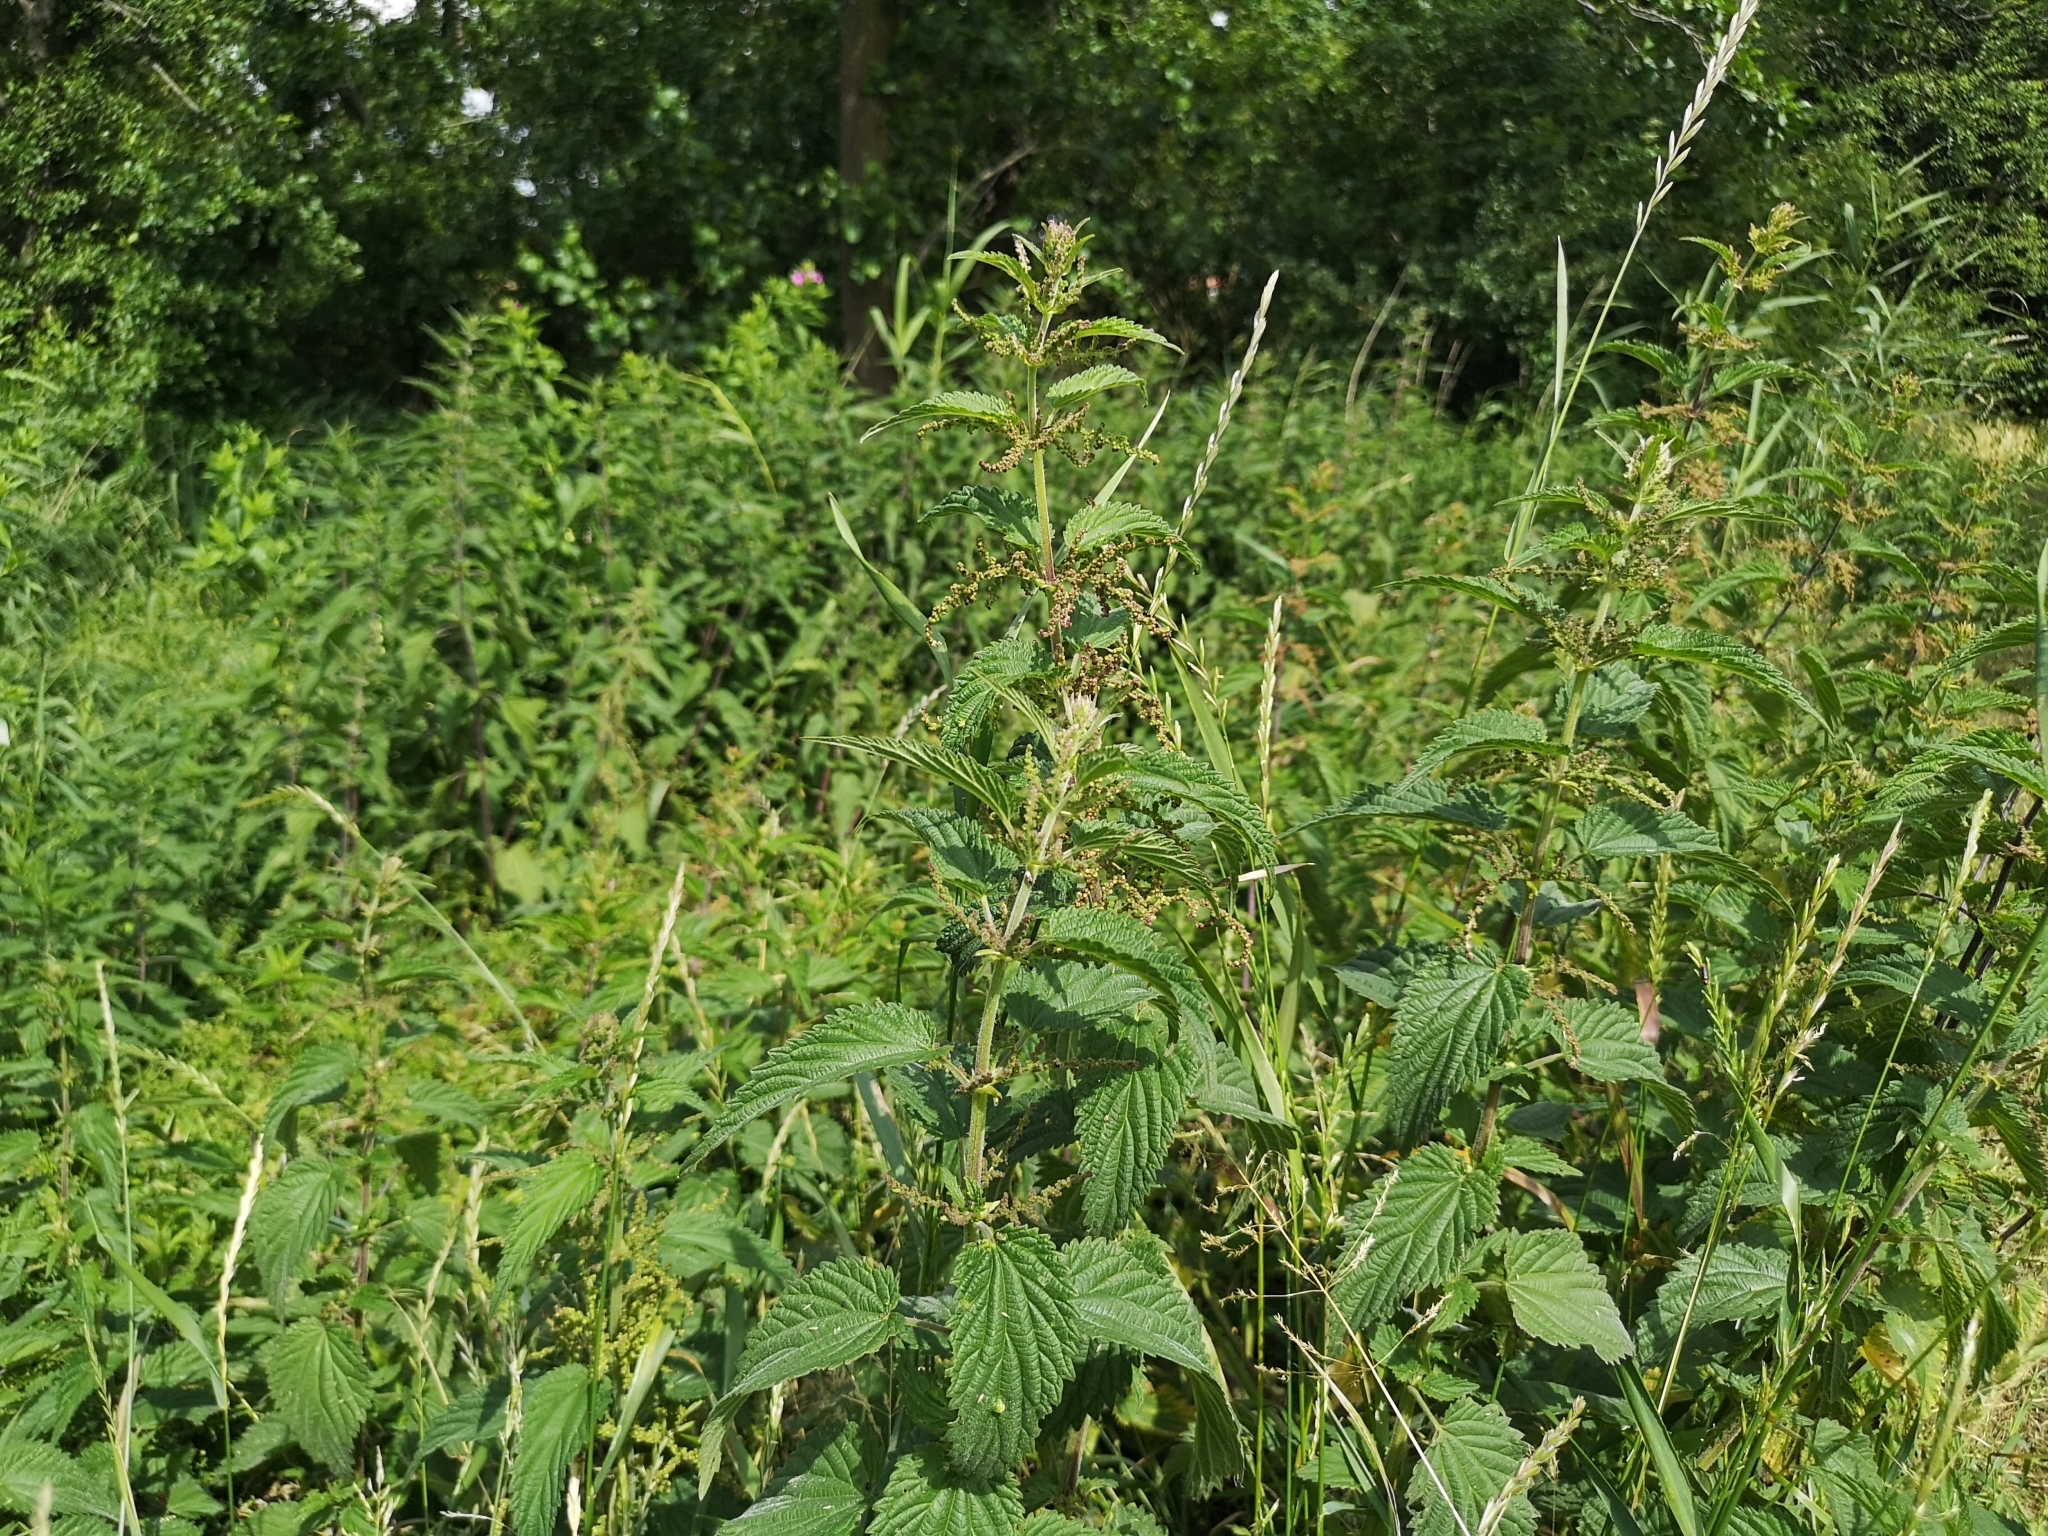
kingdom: Plantae
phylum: Tracheophyta
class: Magnoliopsida
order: Rosales
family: Urticaceae
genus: Urtica
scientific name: Urtica dioica
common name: Common nettle
